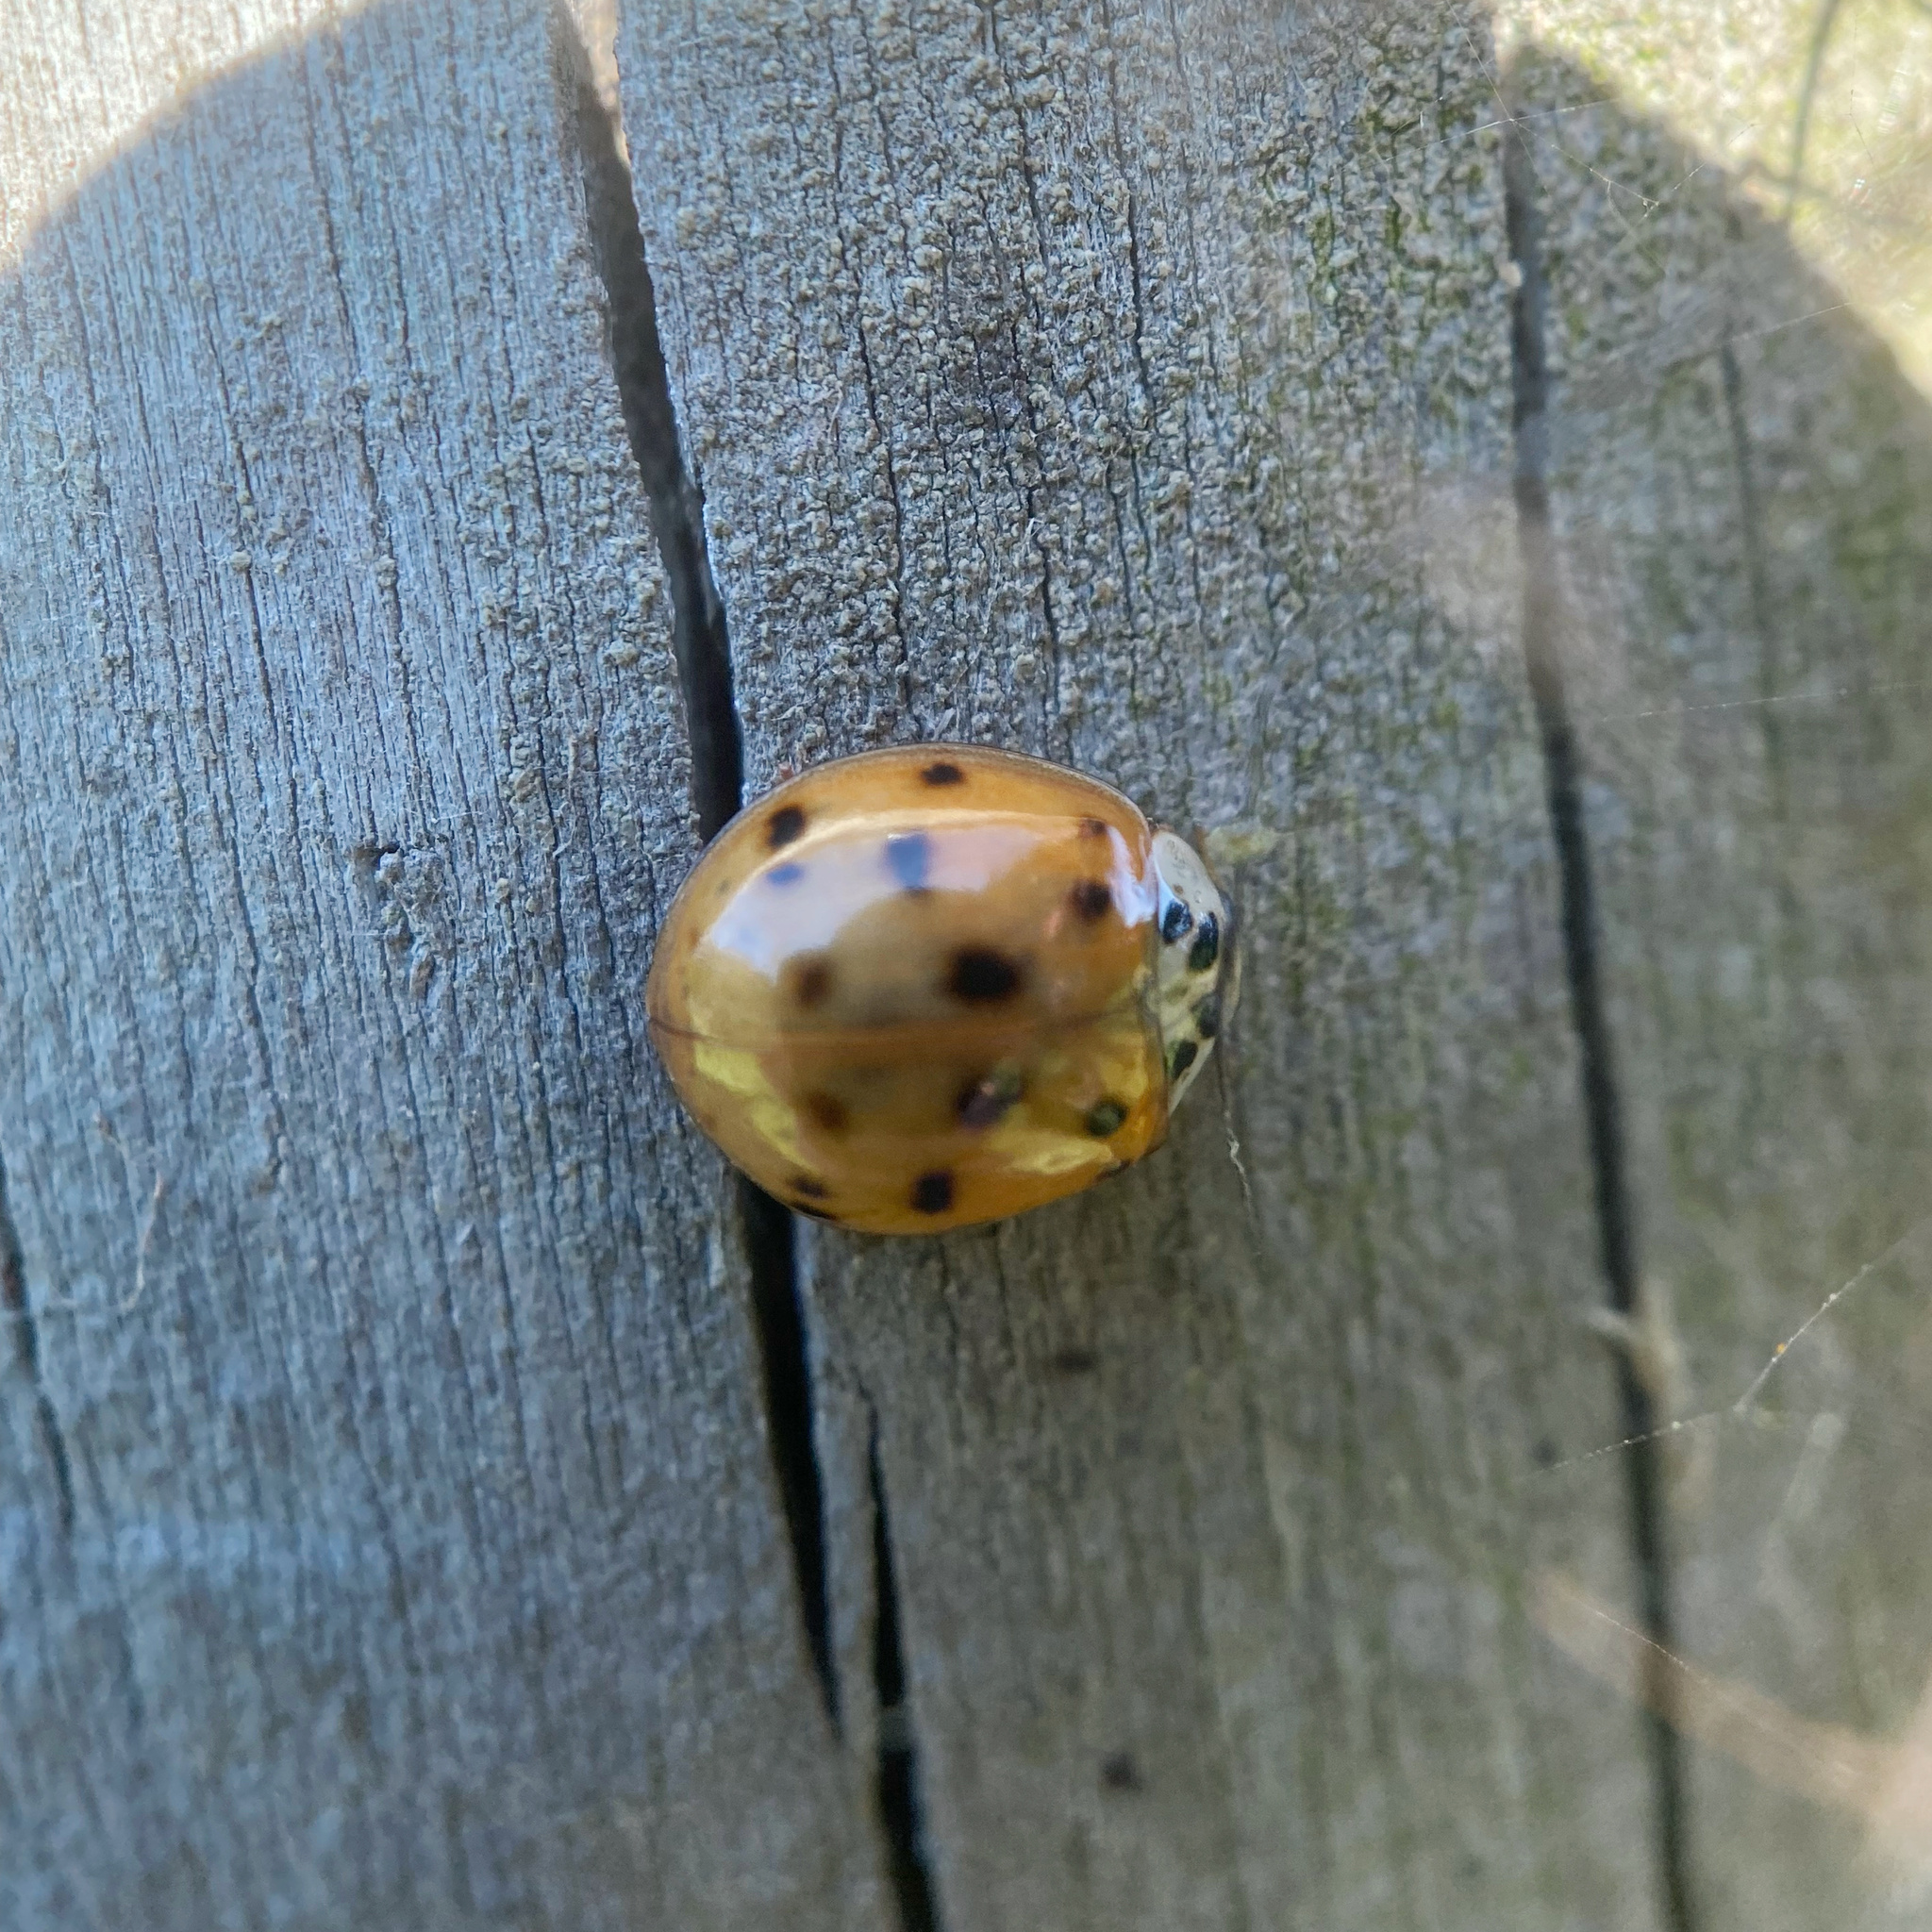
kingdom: Animalia
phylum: Arthropoda
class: Insecta
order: Coleoptera
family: Coccinellidae
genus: Harmonia
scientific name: Harmonia axyridis
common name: Harlequin ladybird
